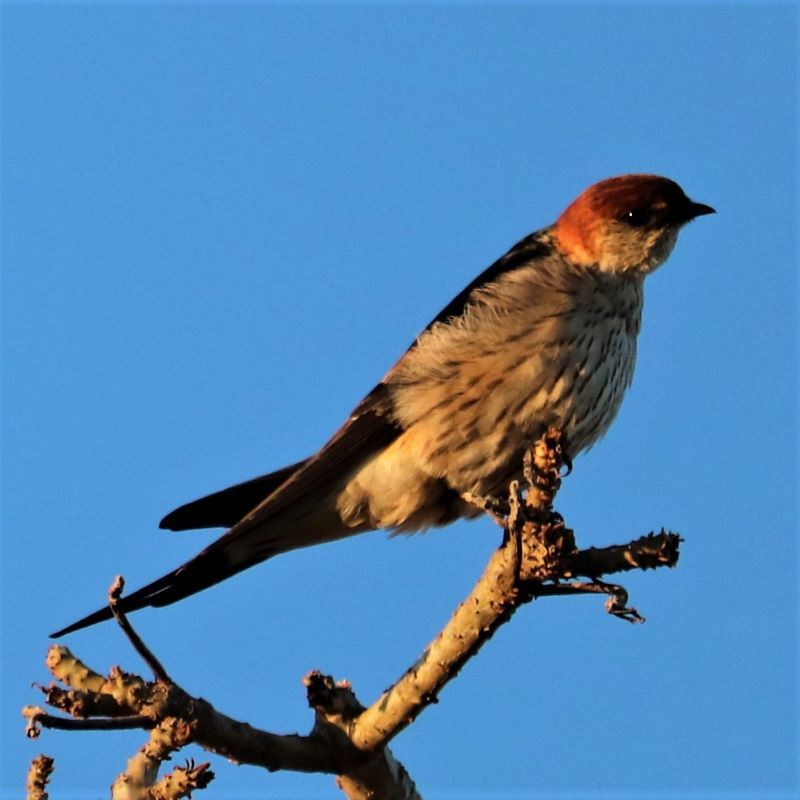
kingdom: Animalia
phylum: Chordata
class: Aves
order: Passeriformes
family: Hirundinidae
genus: Cecropis
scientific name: Cecropis cucullata
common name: Greater striped-swallow
